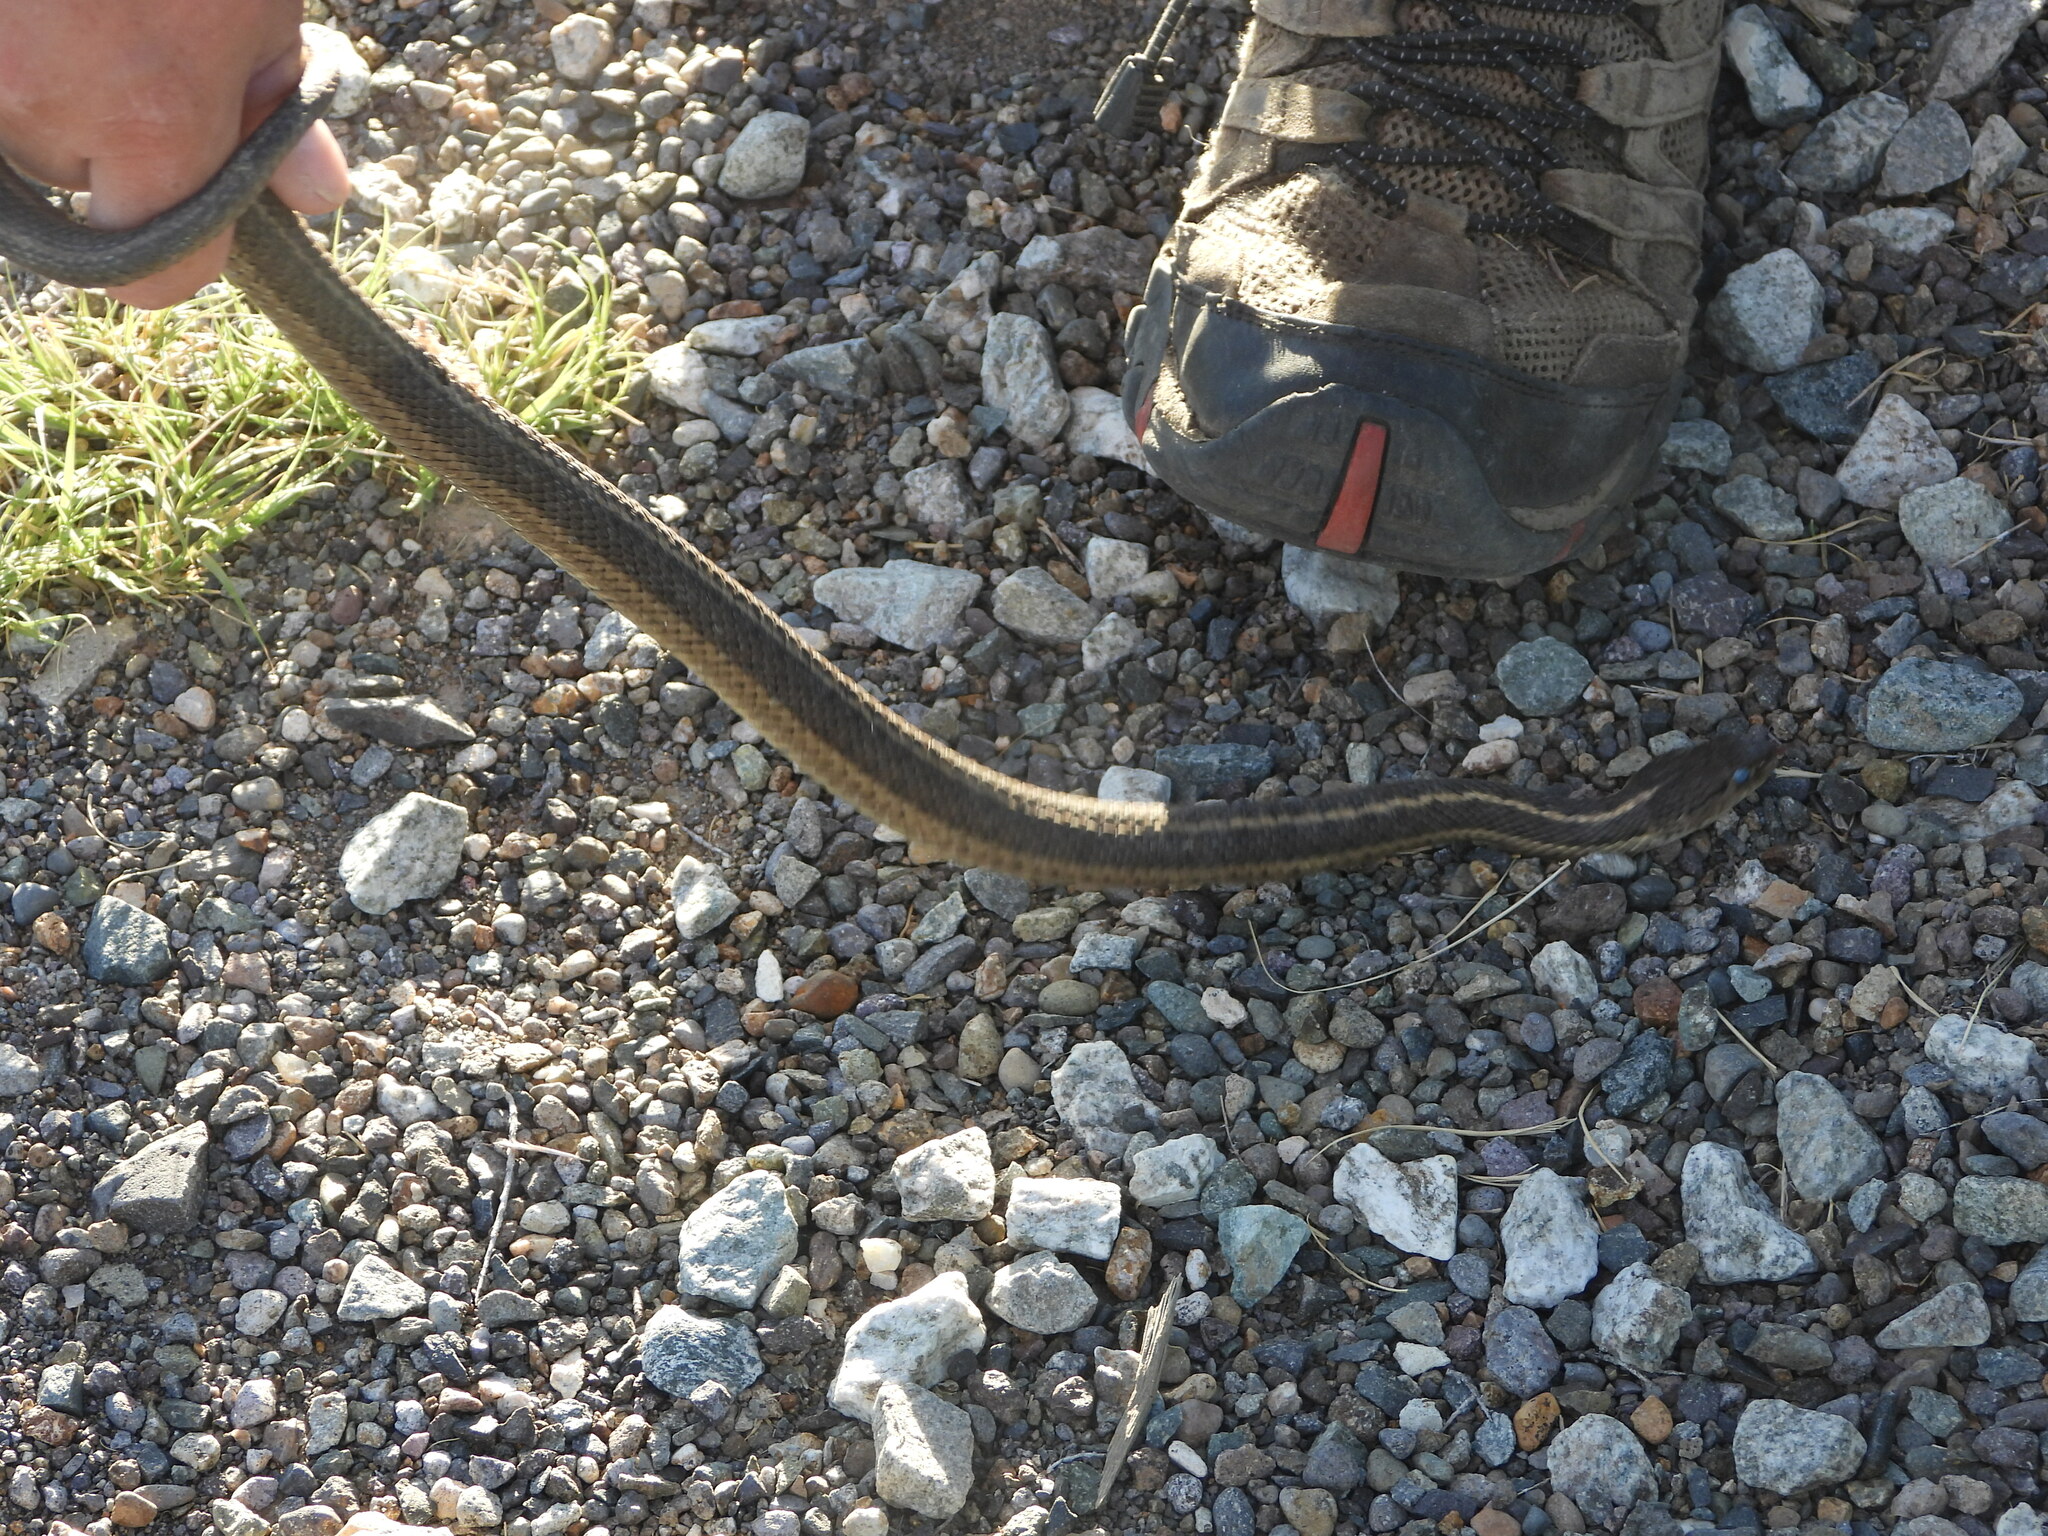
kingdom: Animalia
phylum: Chordata
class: Squamata
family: Colubridae
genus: Thamnophis
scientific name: Thamnophis elegans
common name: Western terrestrial garter snake
